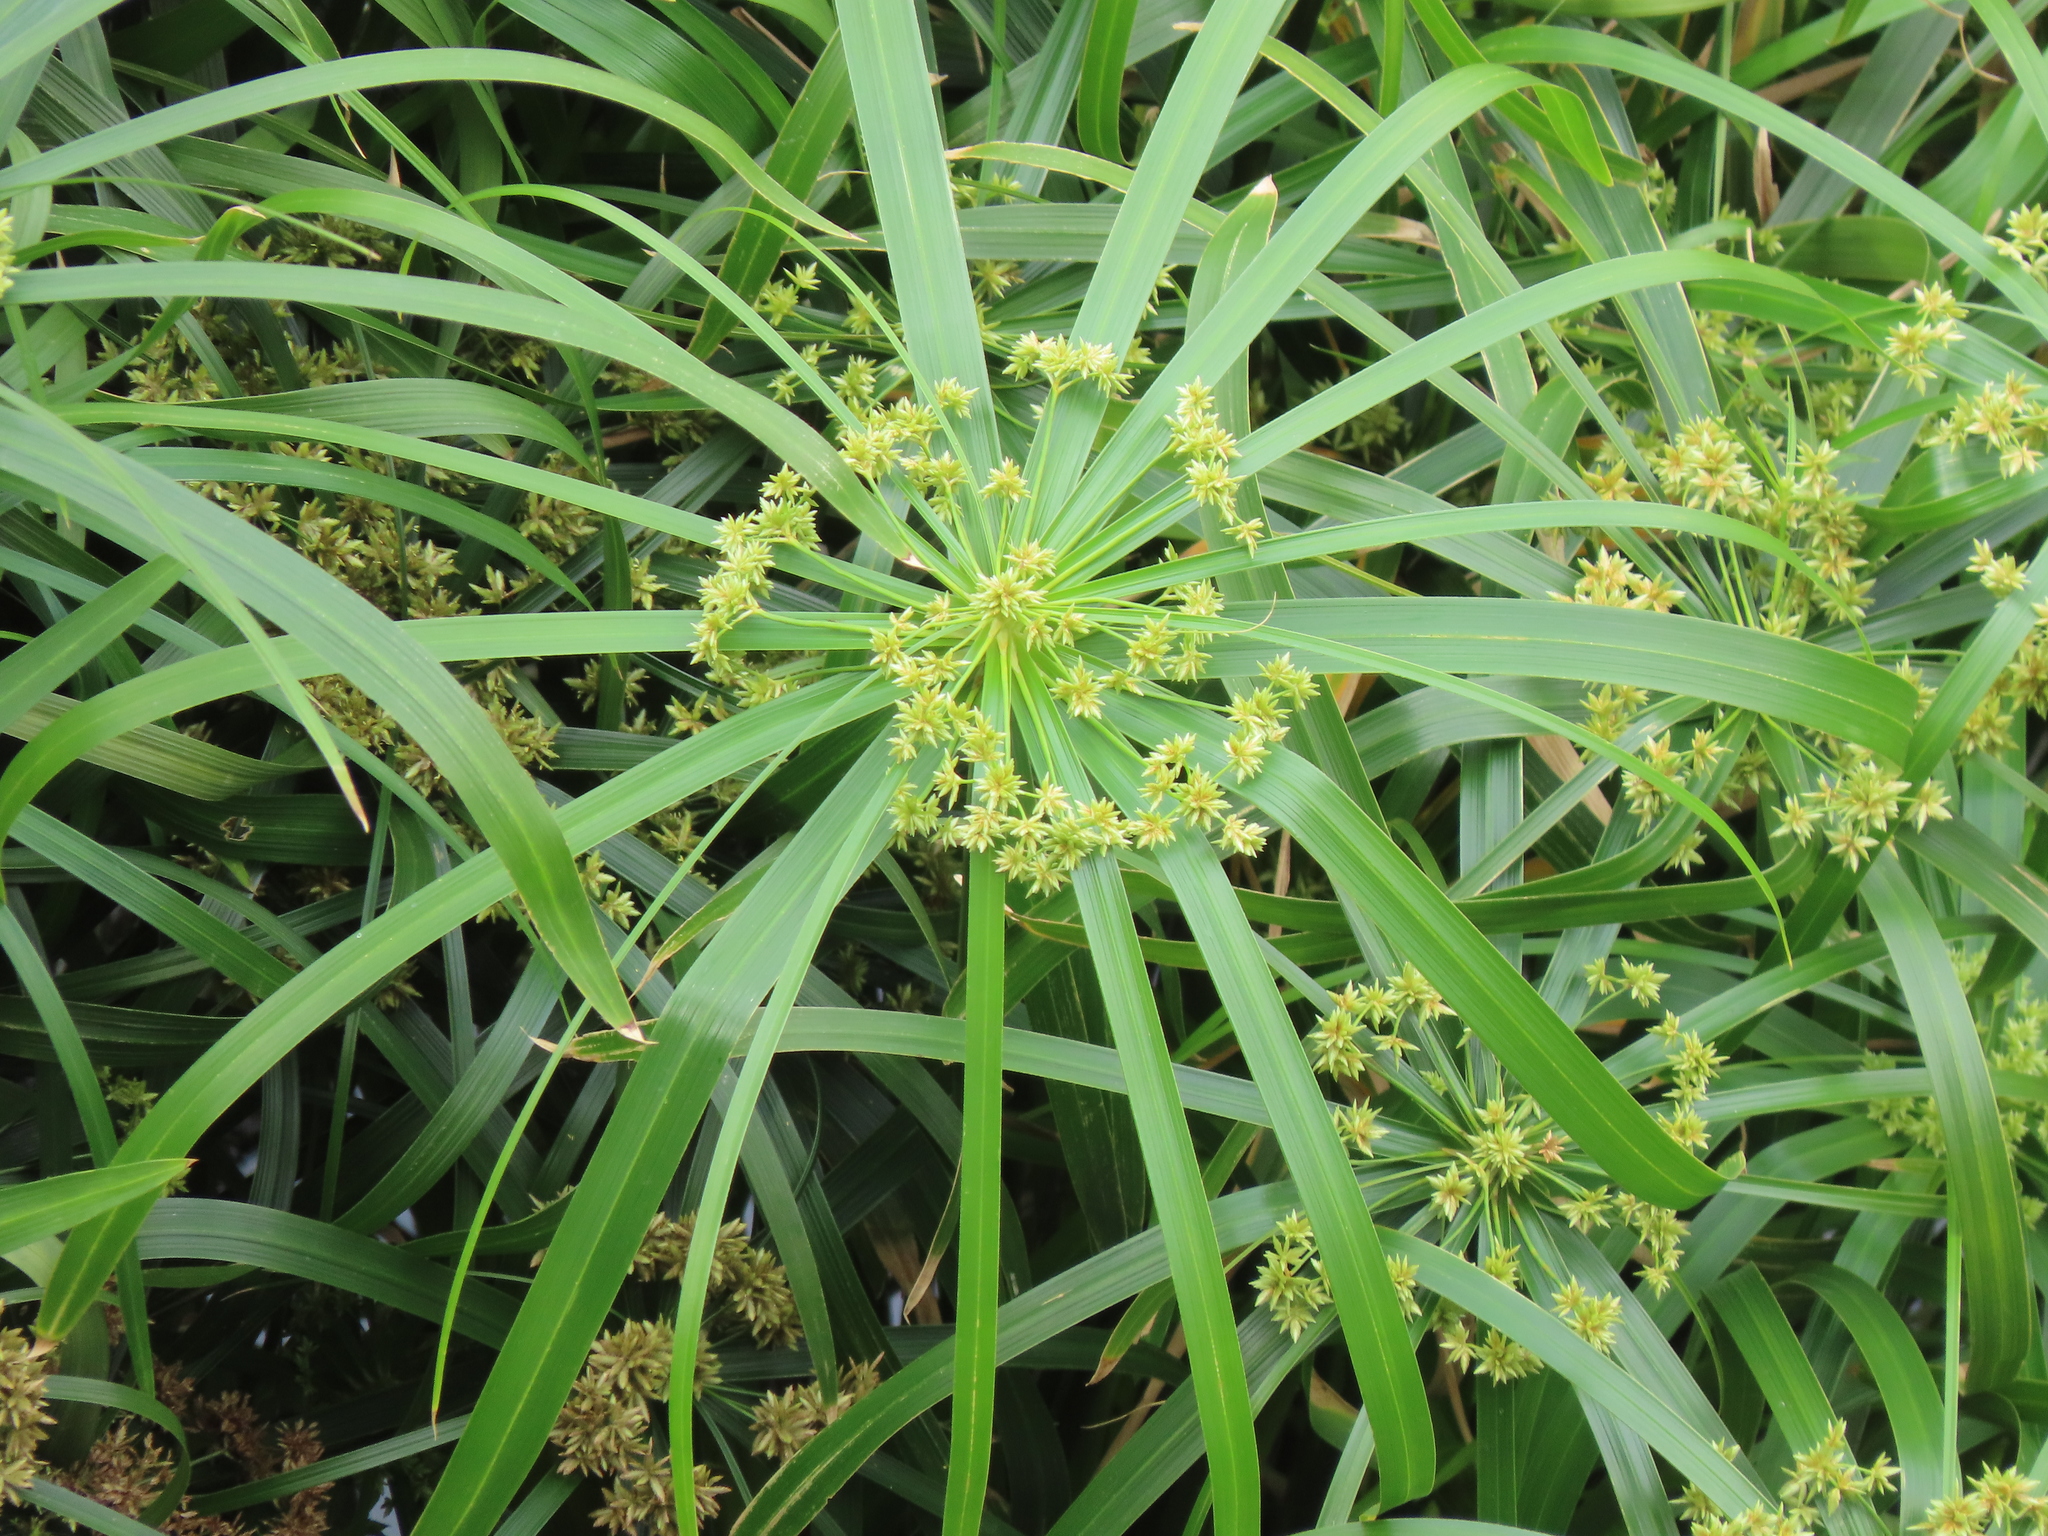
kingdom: Plantae
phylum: Tracheophyta
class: Liliopsida
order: Poales
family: Cyperaceae
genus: Cyperus
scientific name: Cyperus alternifolius
